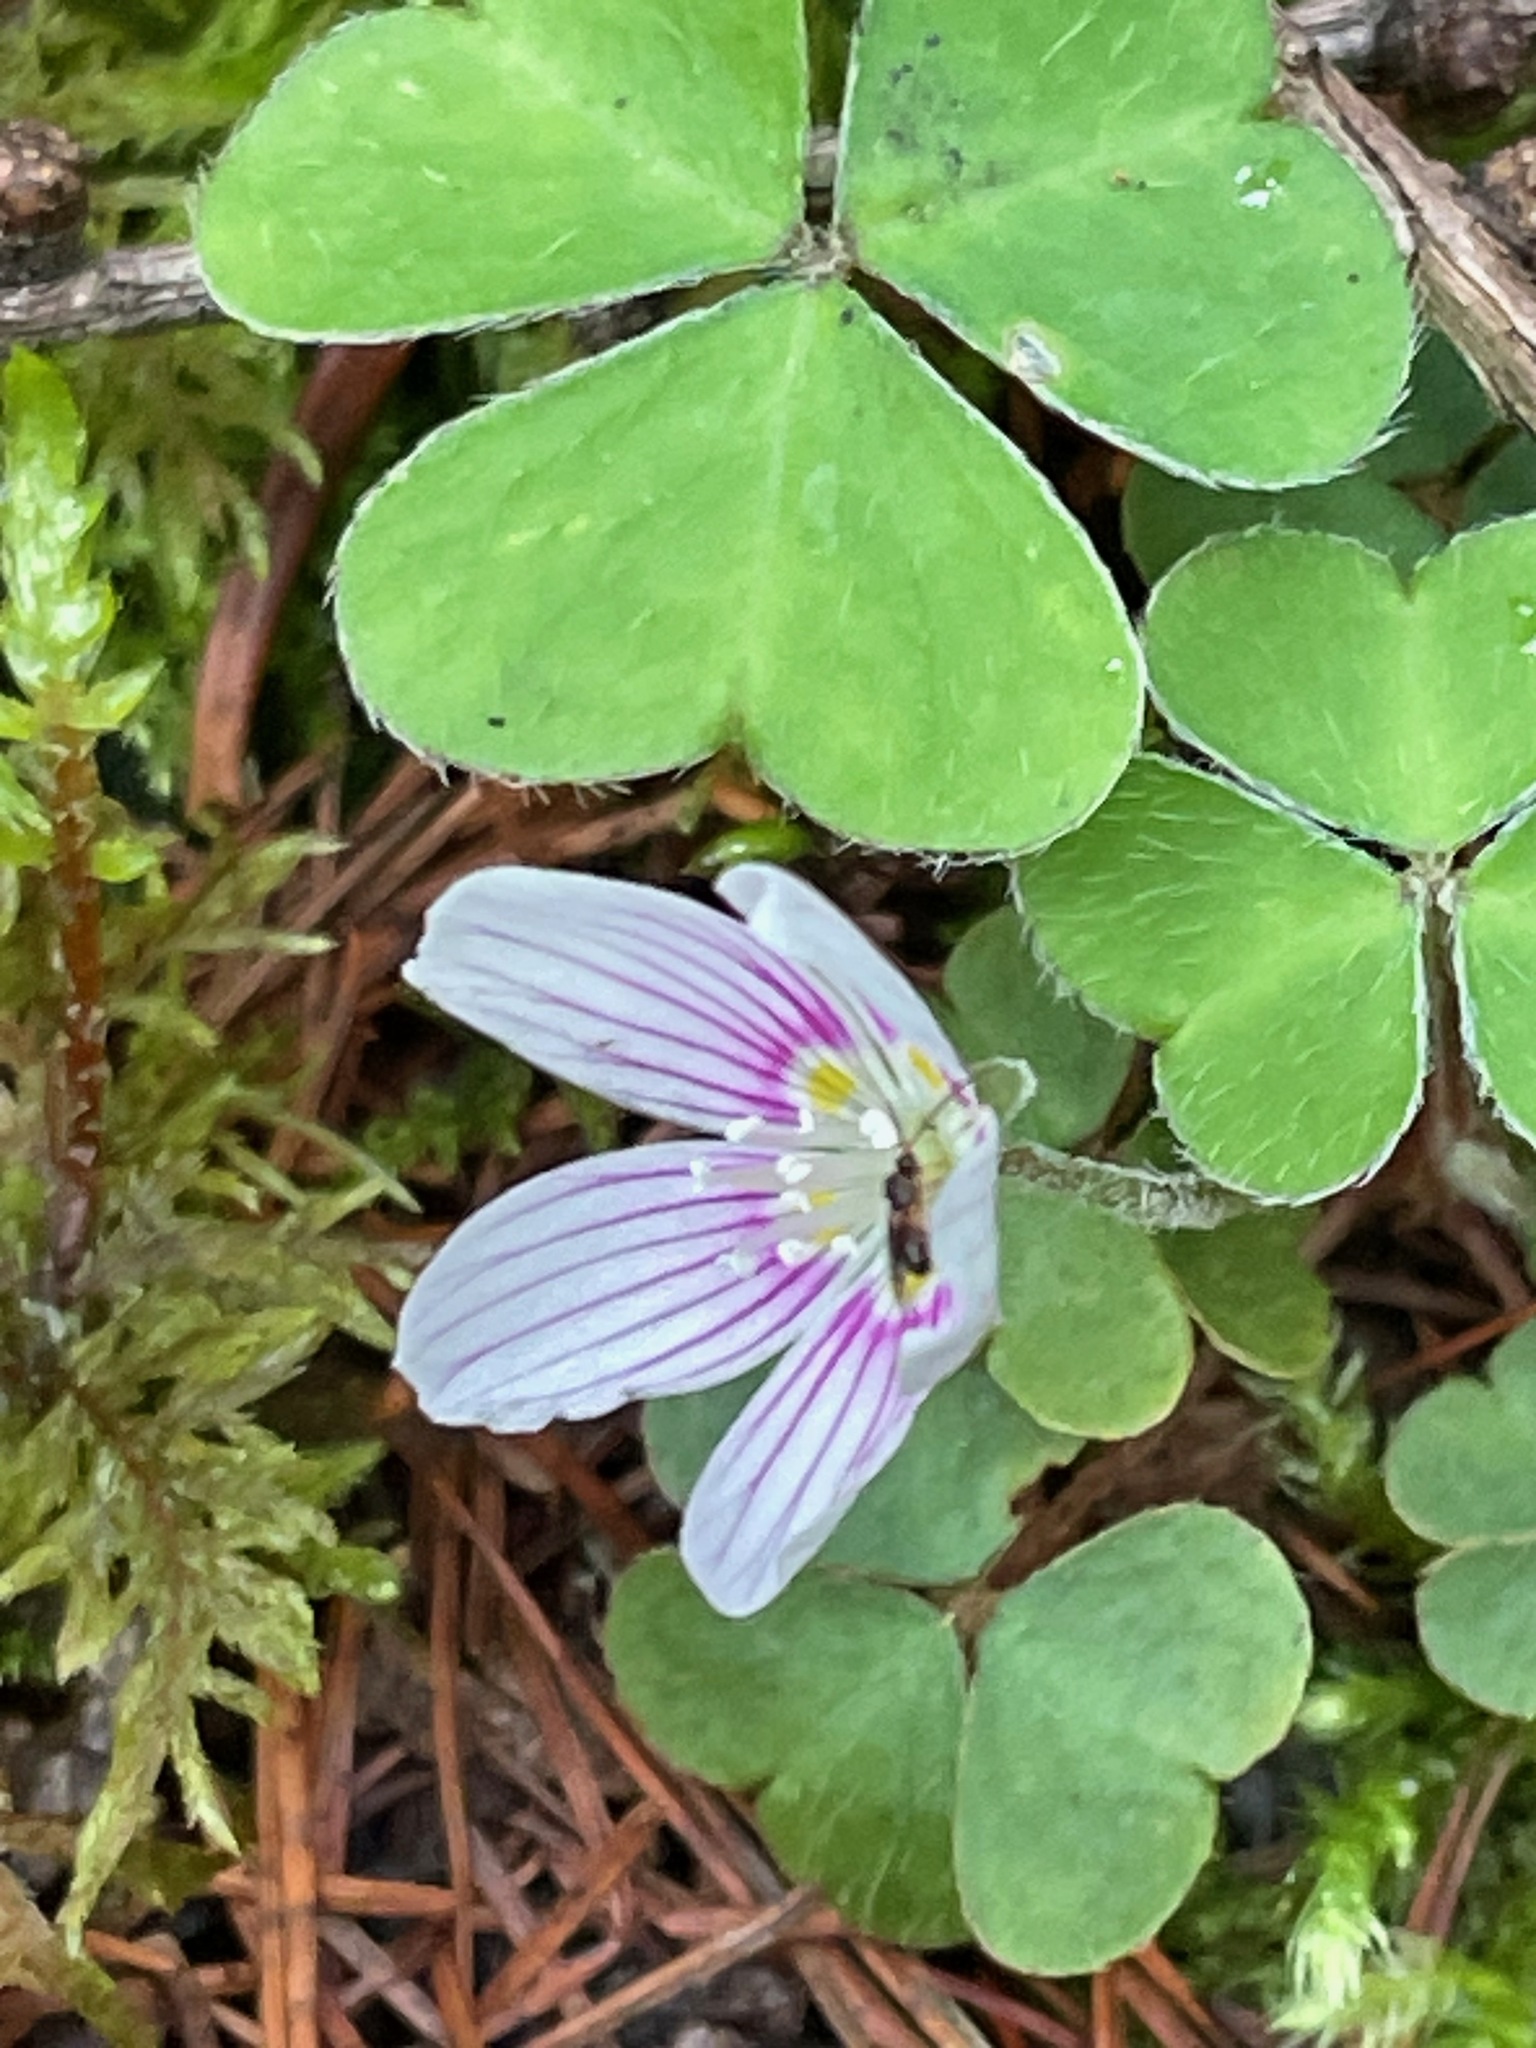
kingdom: Plantae
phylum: Tracheophyta
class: Magnoliopsida
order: Oxalidales
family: Oxalidaceae
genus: Oxalis
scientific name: Oxalis montana
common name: American wood-sorrel
